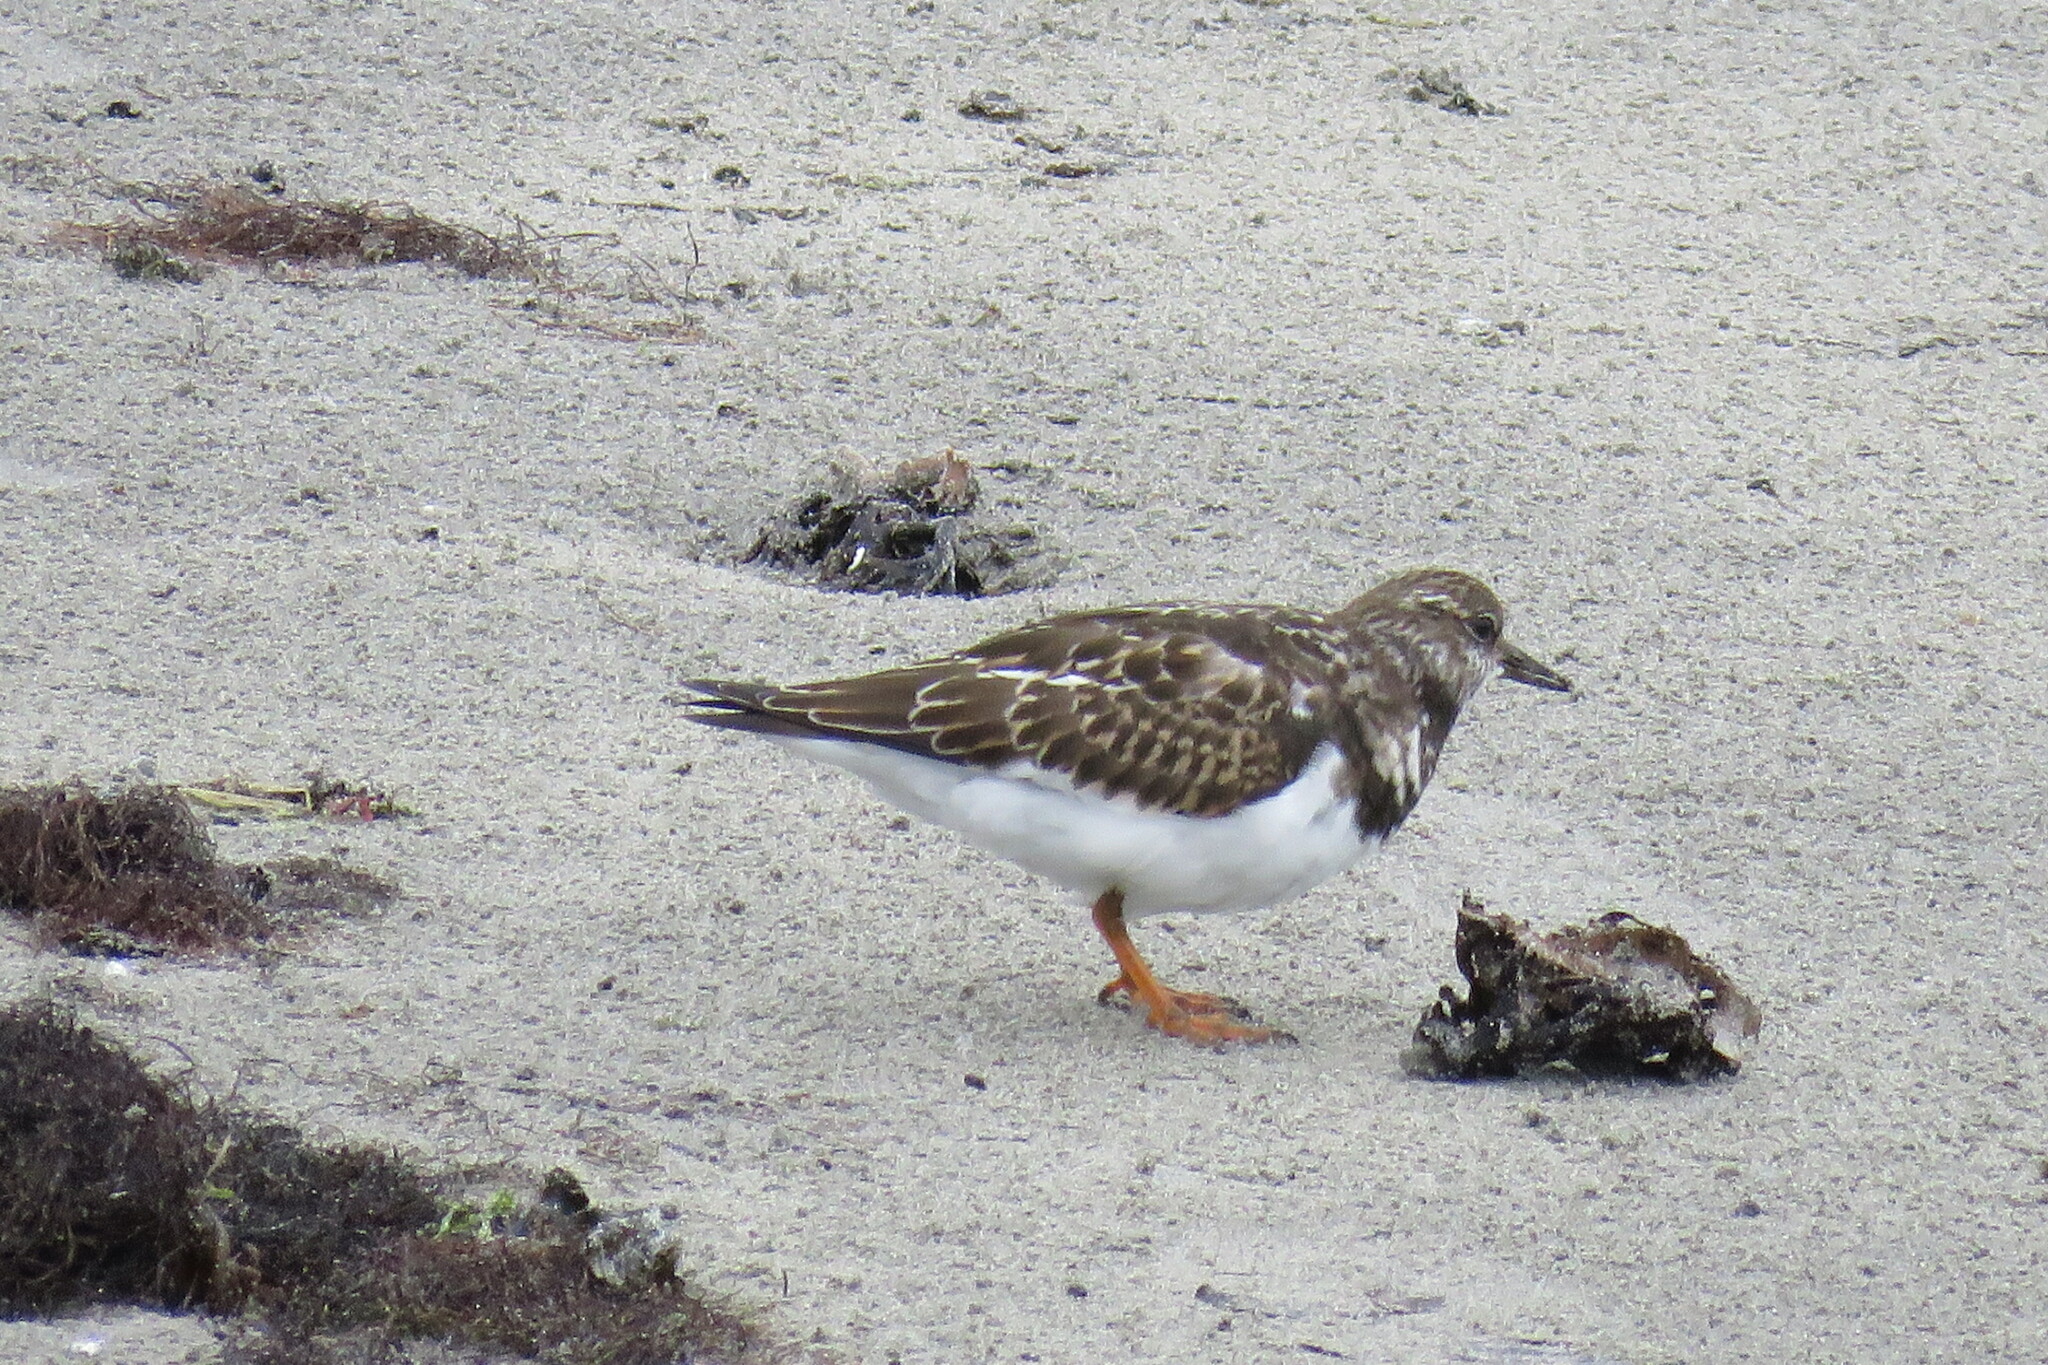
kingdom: Animalia
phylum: Chordata
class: Aves
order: Charadriiformes
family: Scolopacidae
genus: Arenaria
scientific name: Arenaria interpres
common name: Ruddy turnstone
